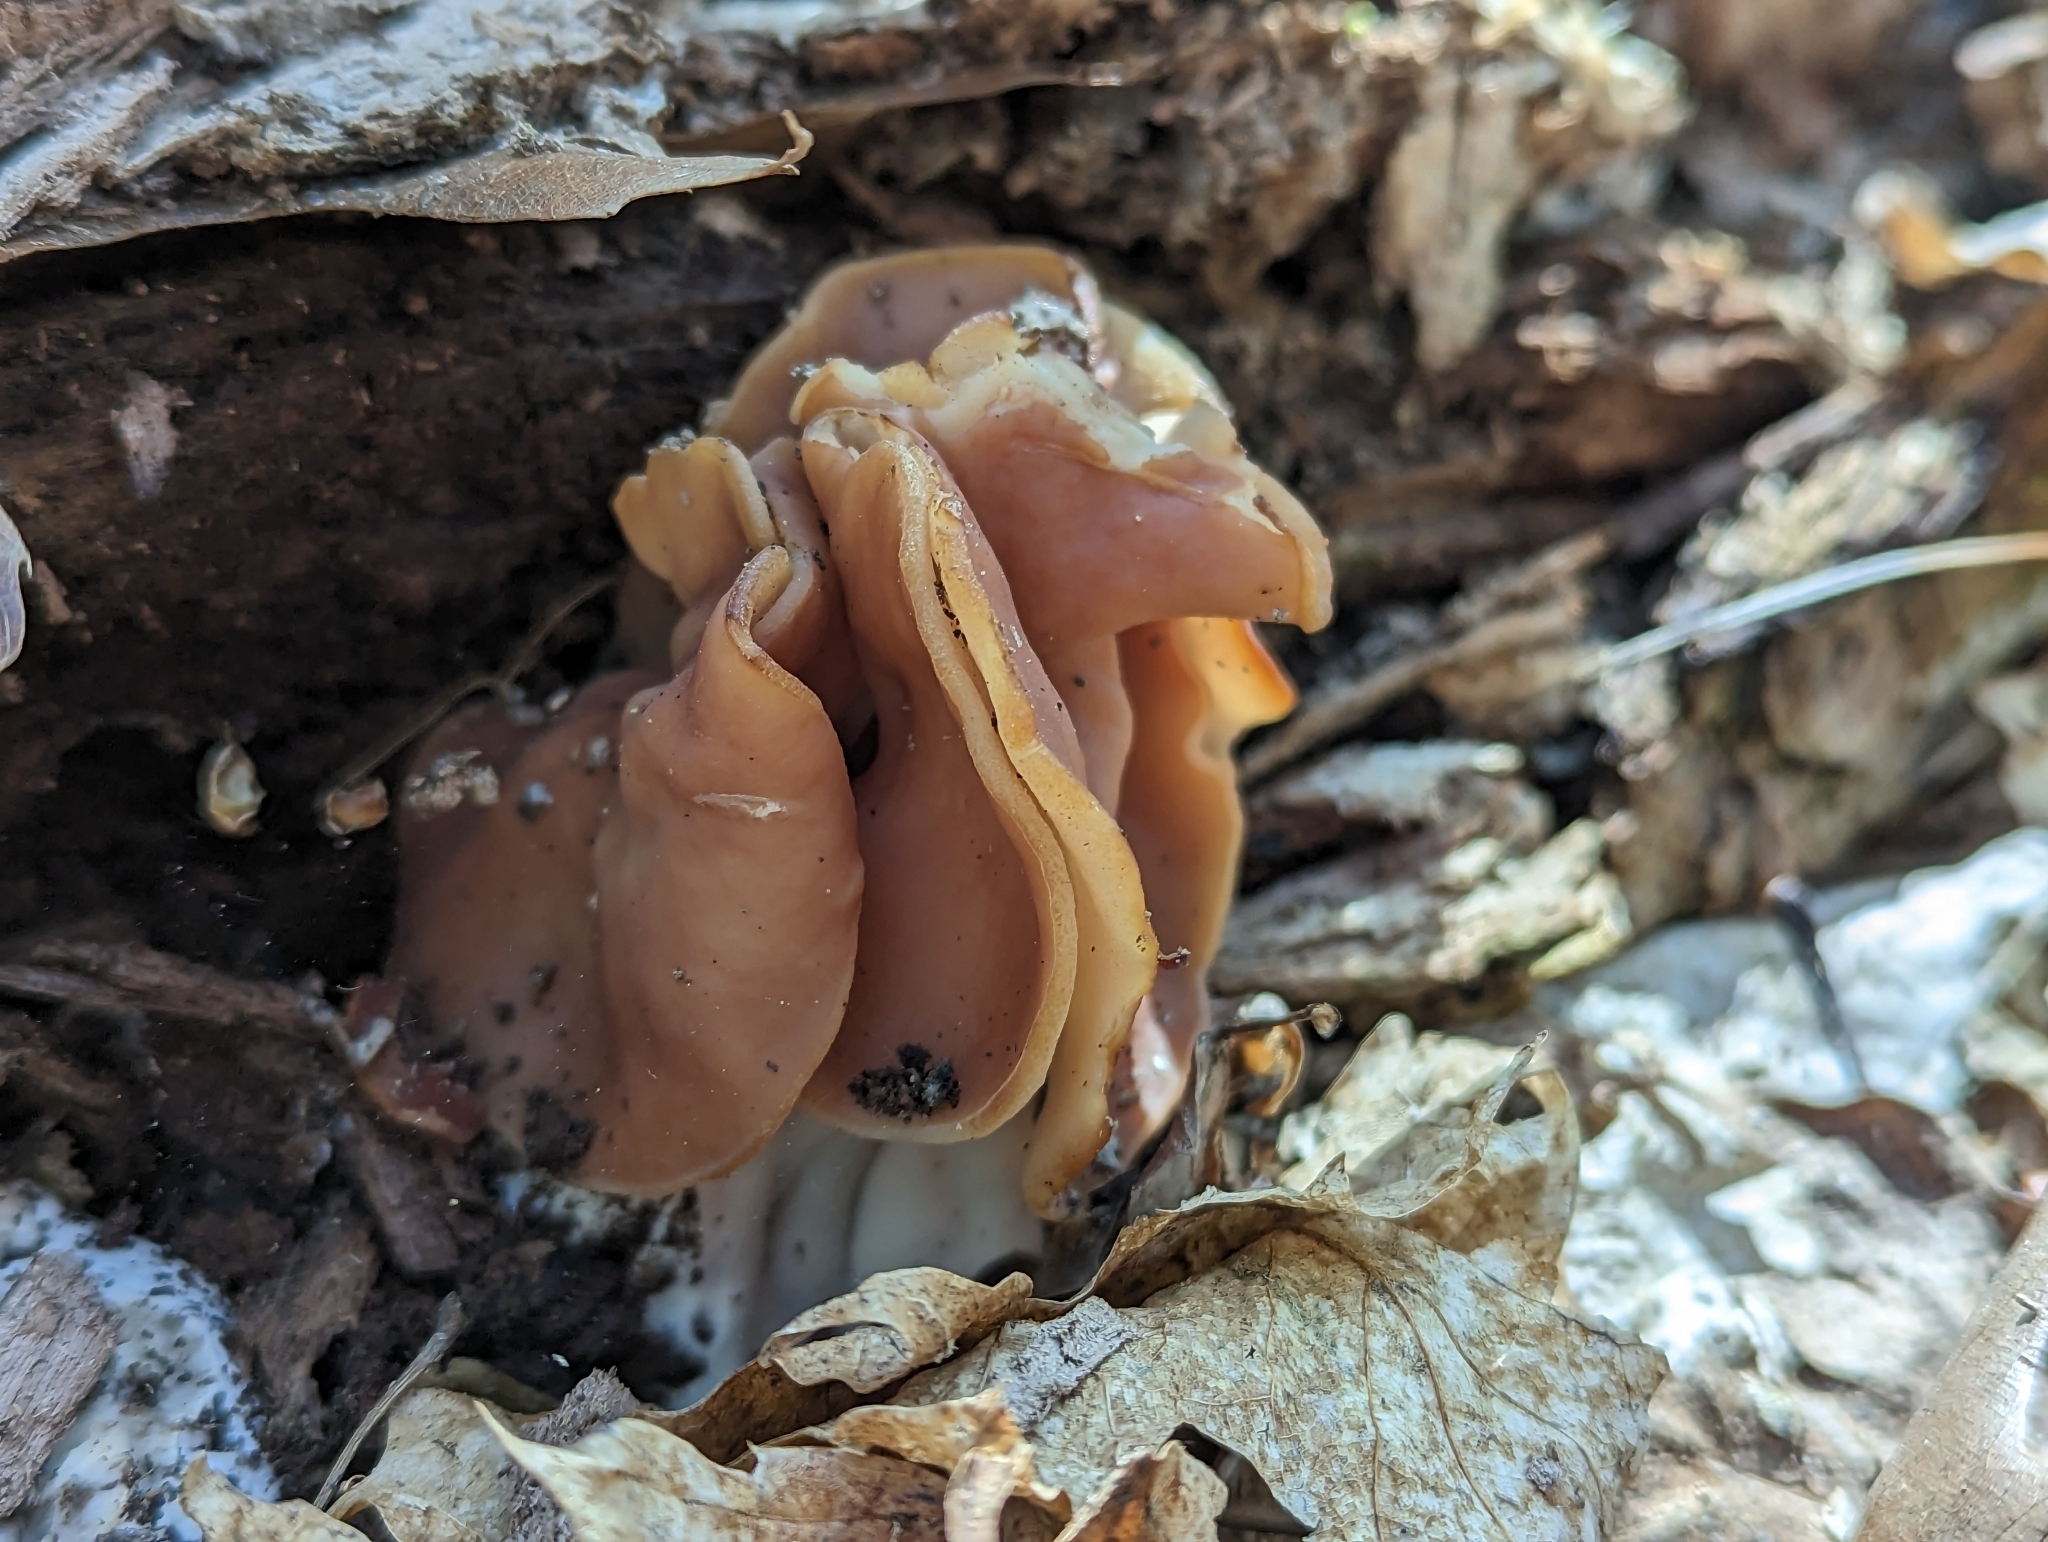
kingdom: Fungi
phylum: Ascomycota
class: Pezizomycetes
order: Pezizales
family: Discinaceae
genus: Discina
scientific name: Discina brunnea
